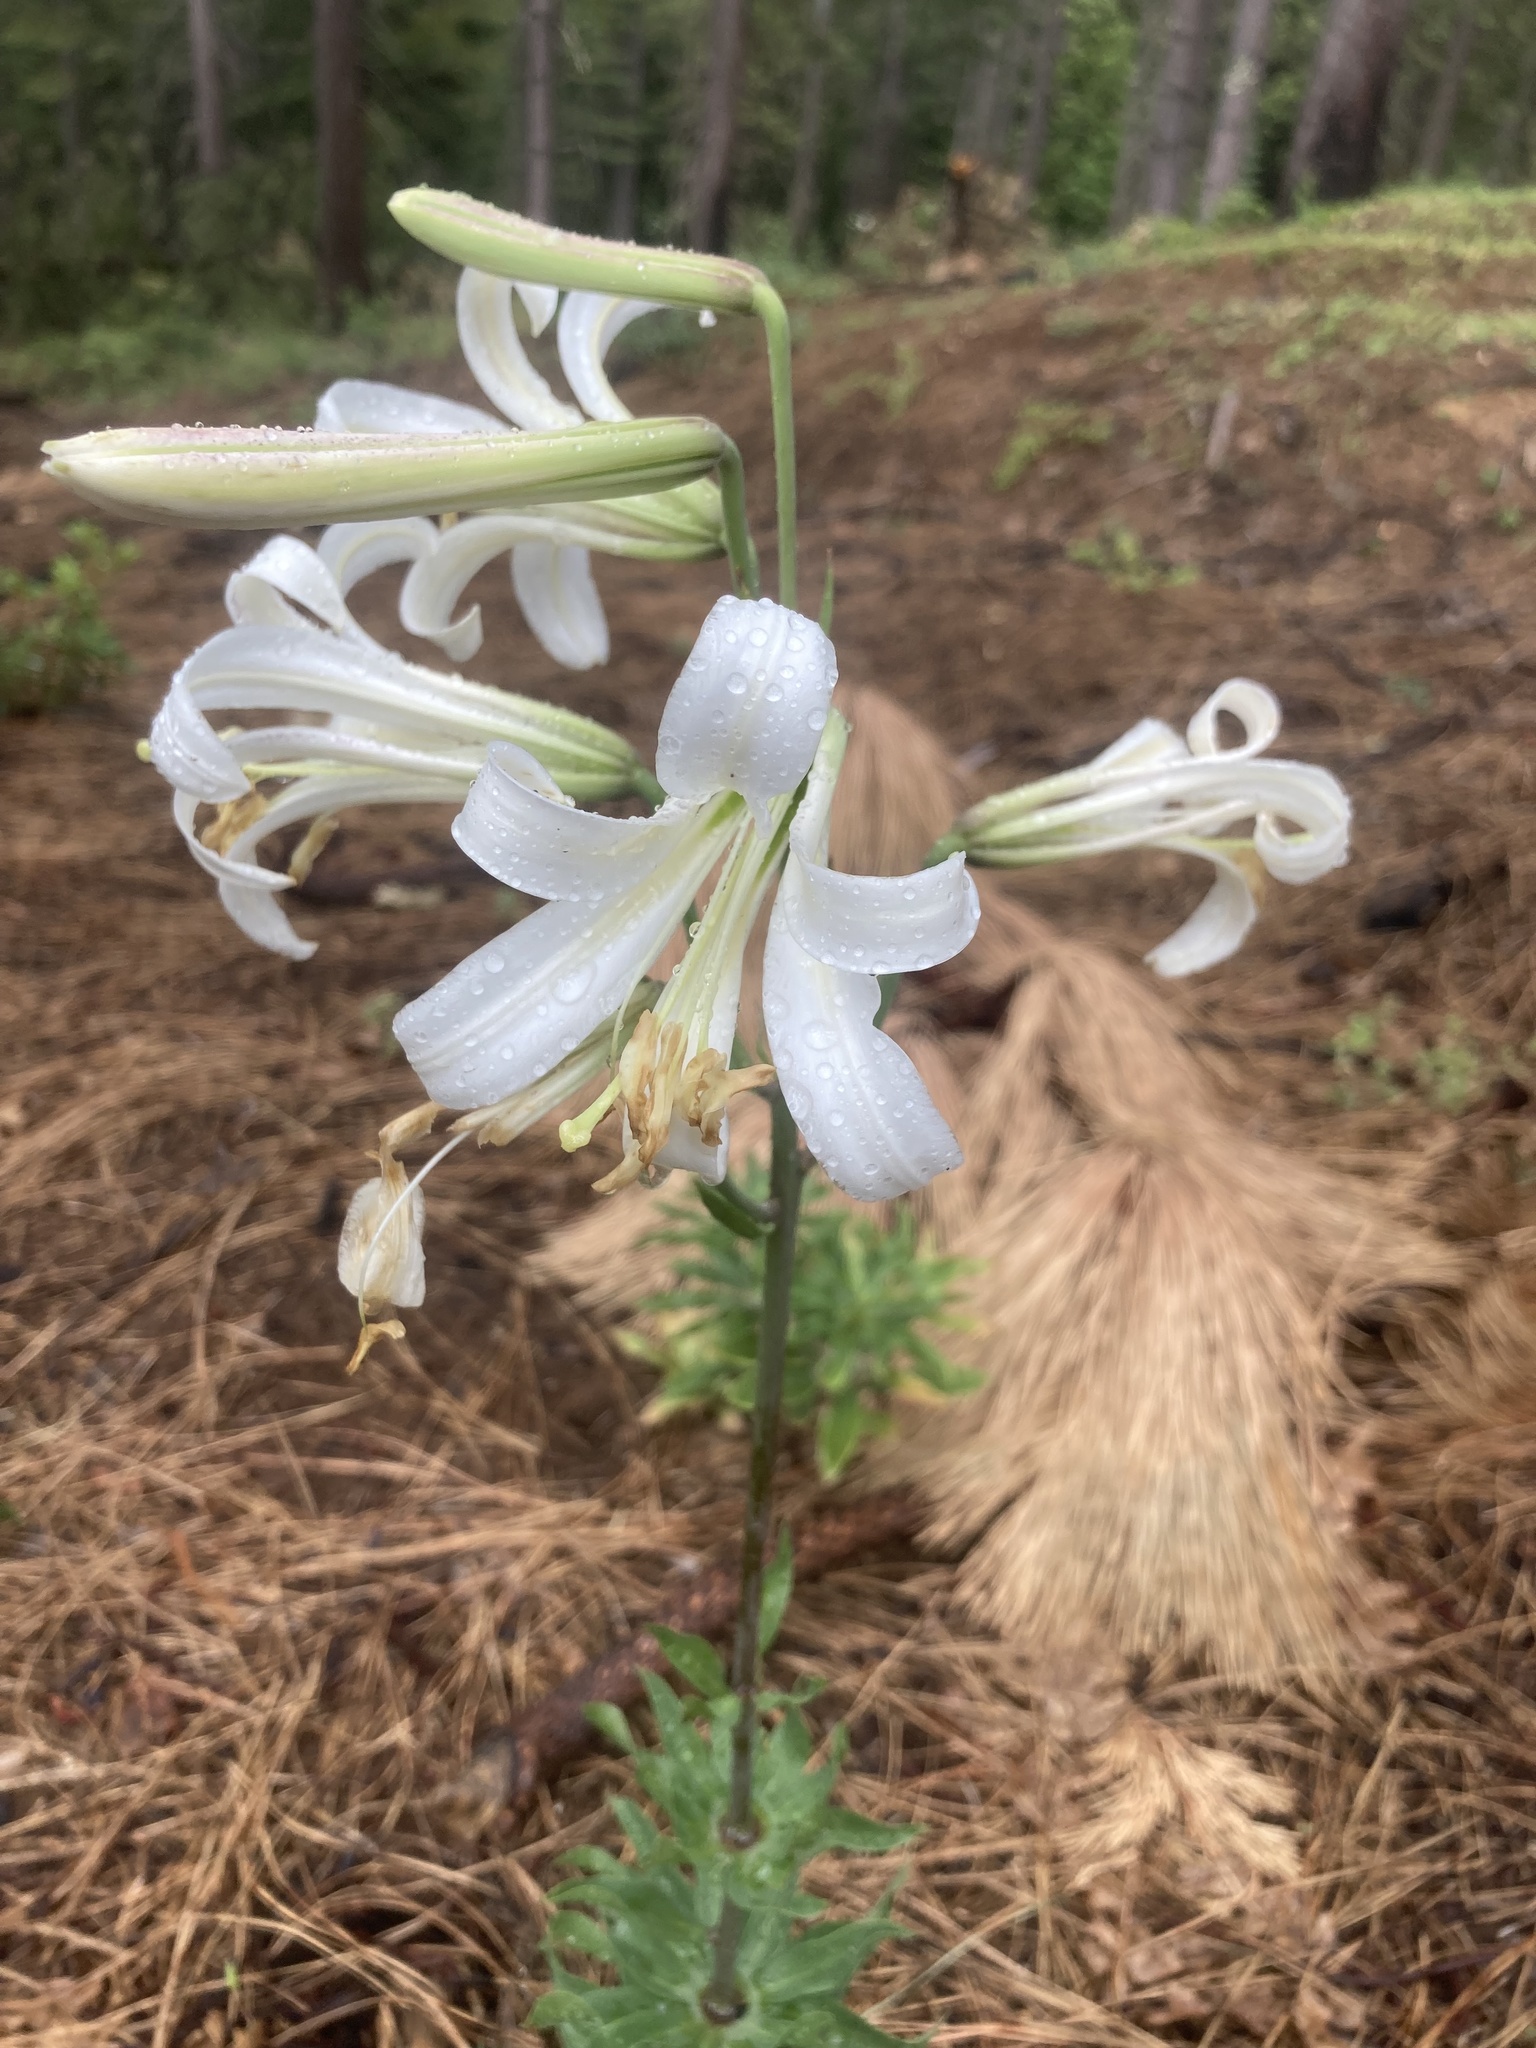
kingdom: Plantae
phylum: Tracheophyta
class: Liliopsida
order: Liliales
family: Liliaceae
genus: Lilium
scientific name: Lilium washingtonianum
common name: Washington lily
